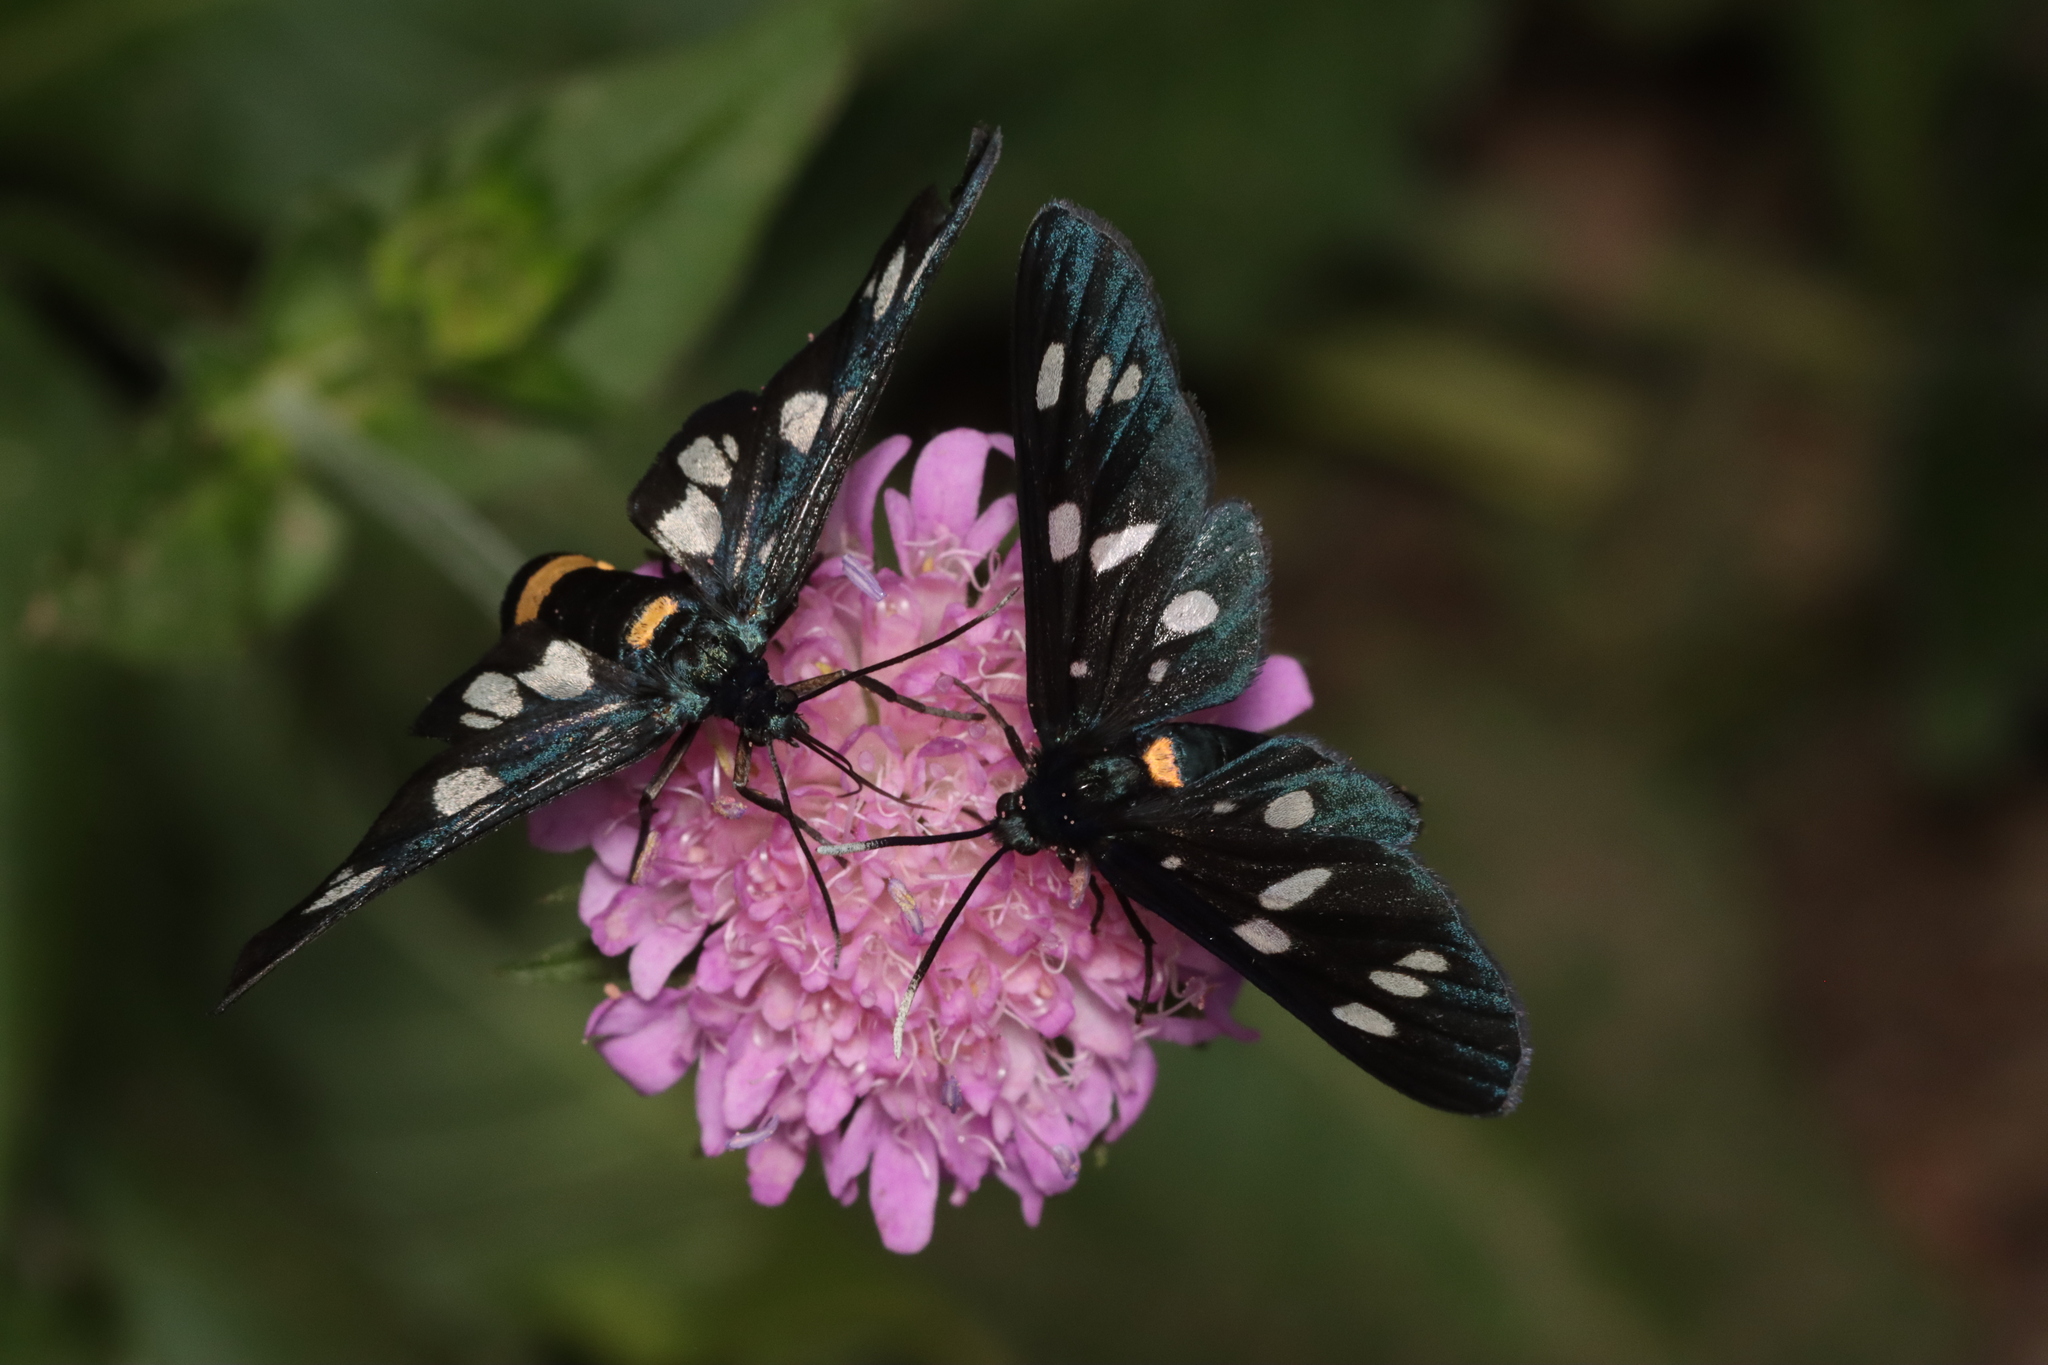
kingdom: Animalia
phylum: Arthropoda
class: Insecta
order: Lepidoptera
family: Erebidae
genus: Amata
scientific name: Amata phegea
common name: Nine-spotted
